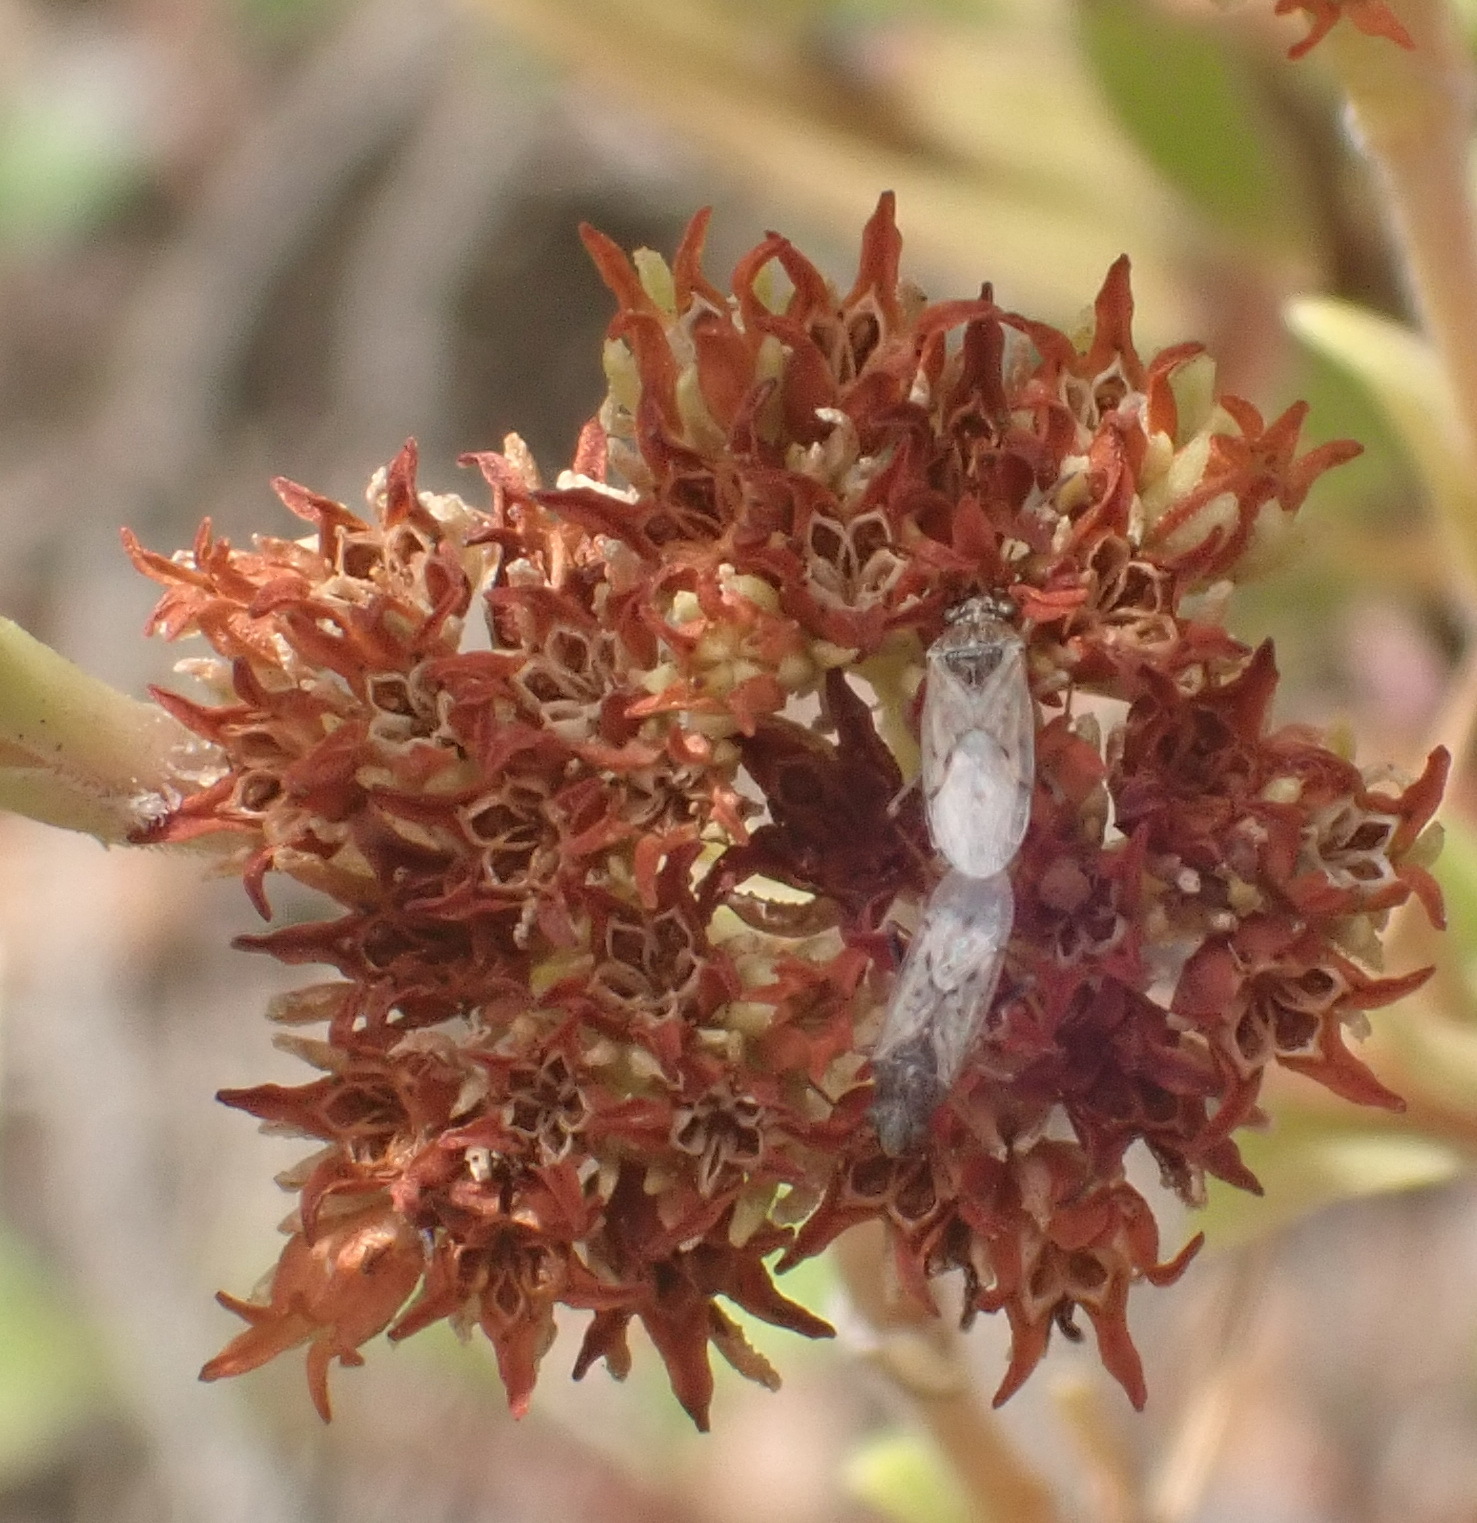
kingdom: Plantae
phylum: Tracheophyta
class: Magnoliopsida
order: Saxifragales
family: Crassulaceae
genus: Crassula
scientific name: Crassula subulata
